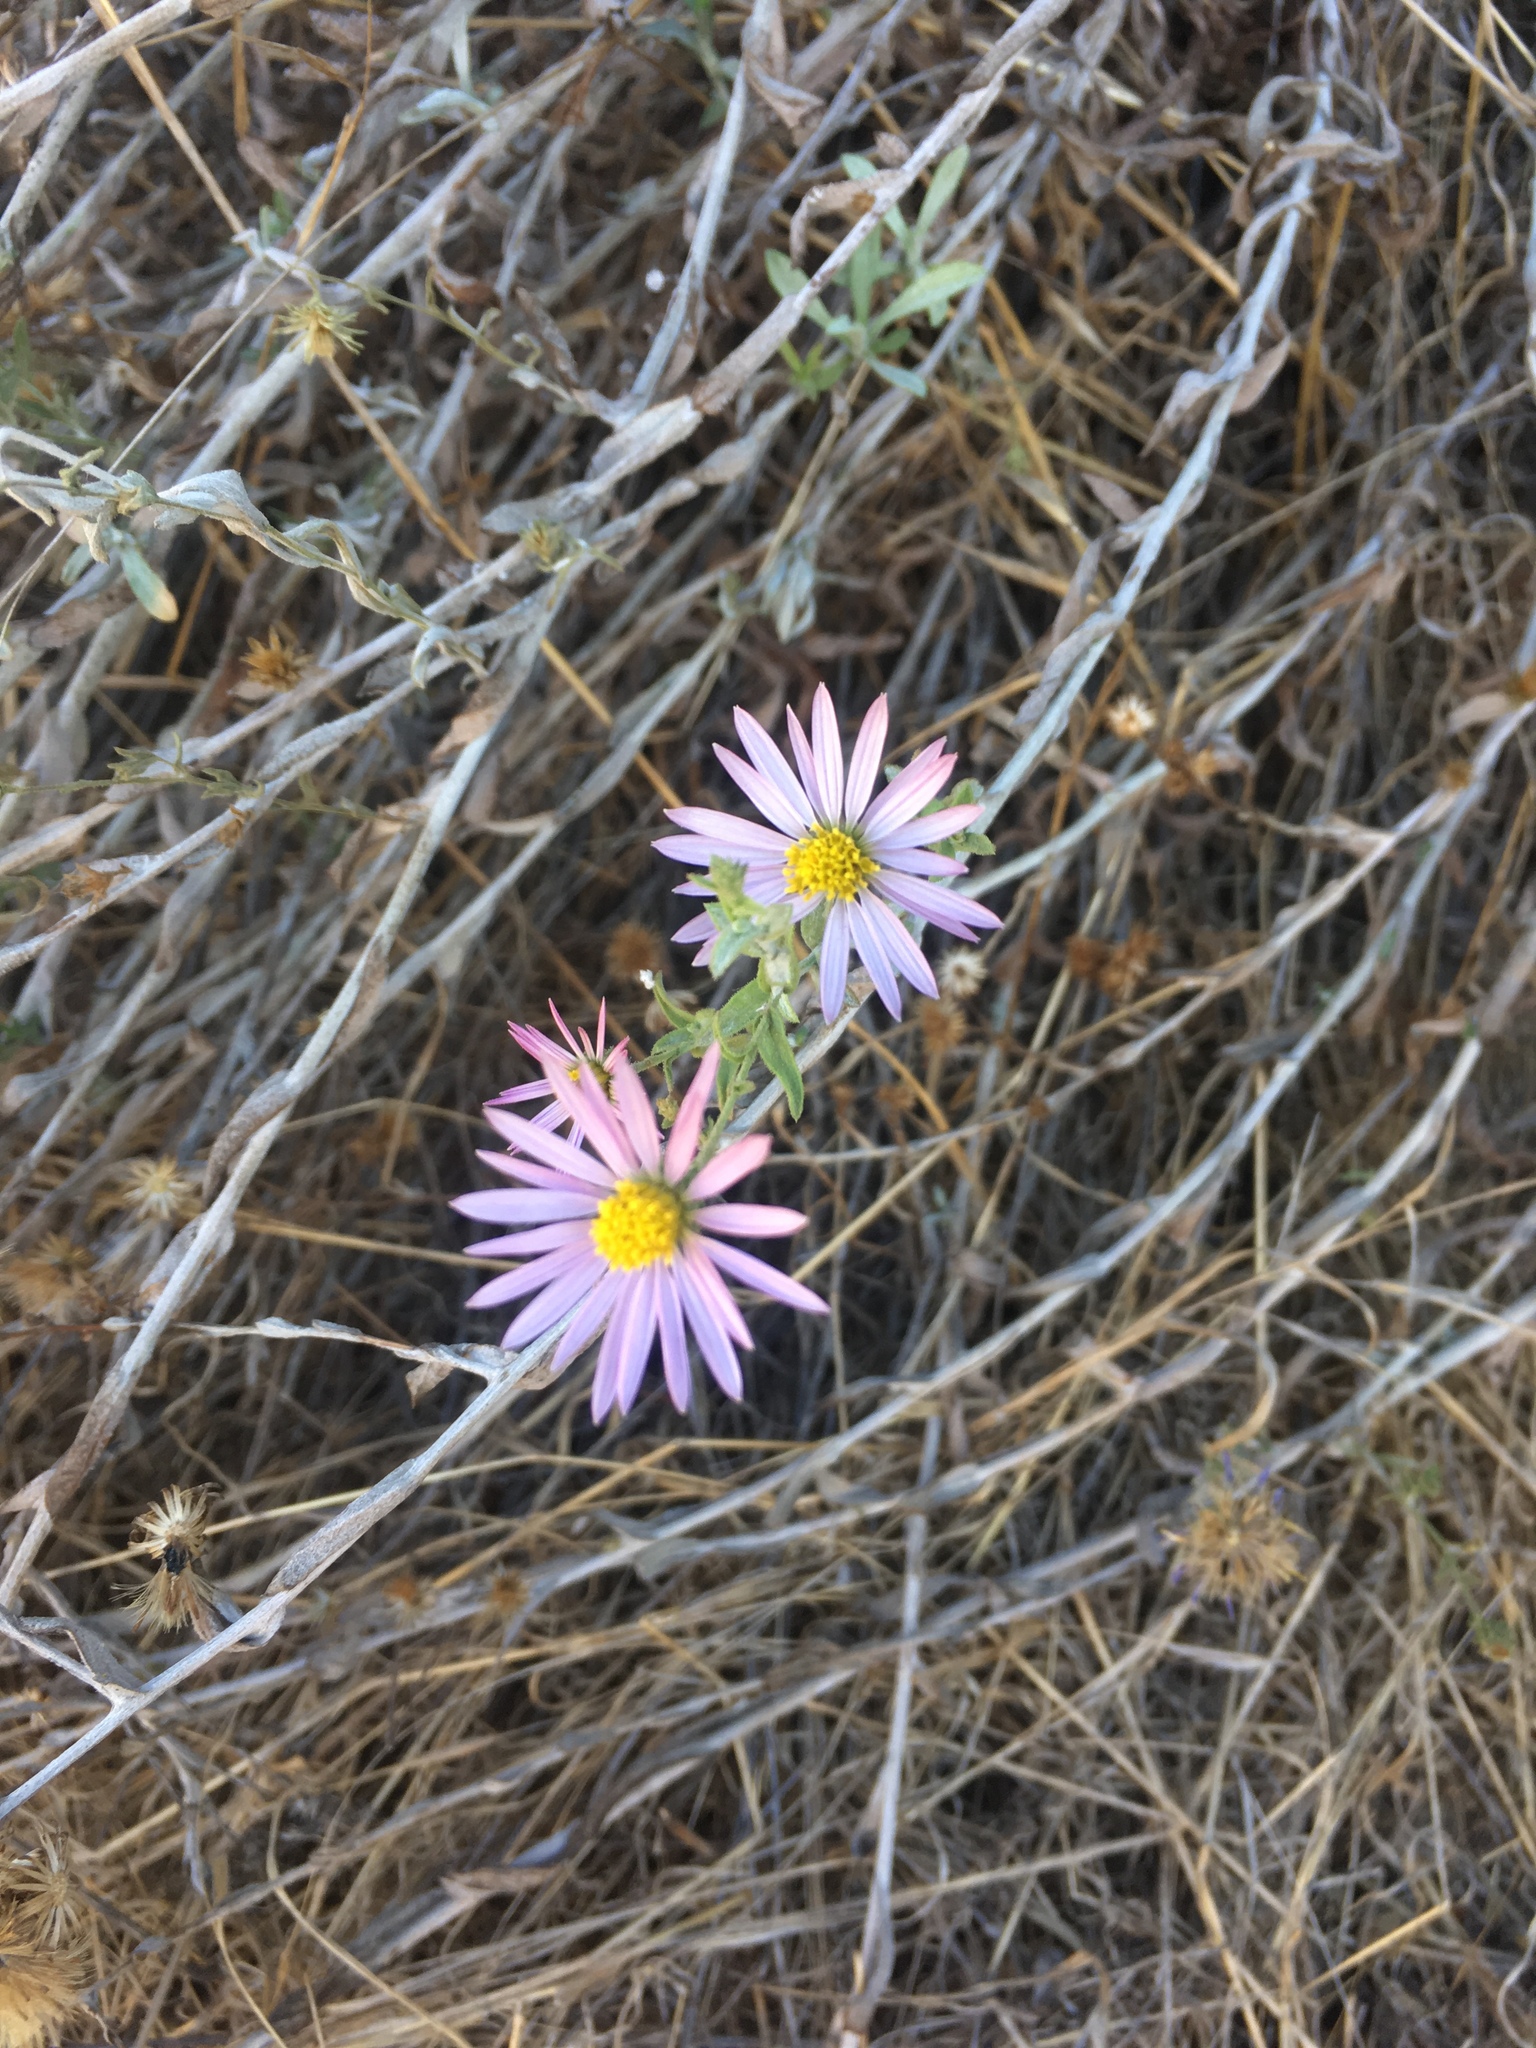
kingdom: Plantae
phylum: Tracheophyta
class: Magnoliopsida
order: Asterales
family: Asteraceae
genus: Corethrogyne
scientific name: Corethrogyne filaginifolia
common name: Sand-aster
